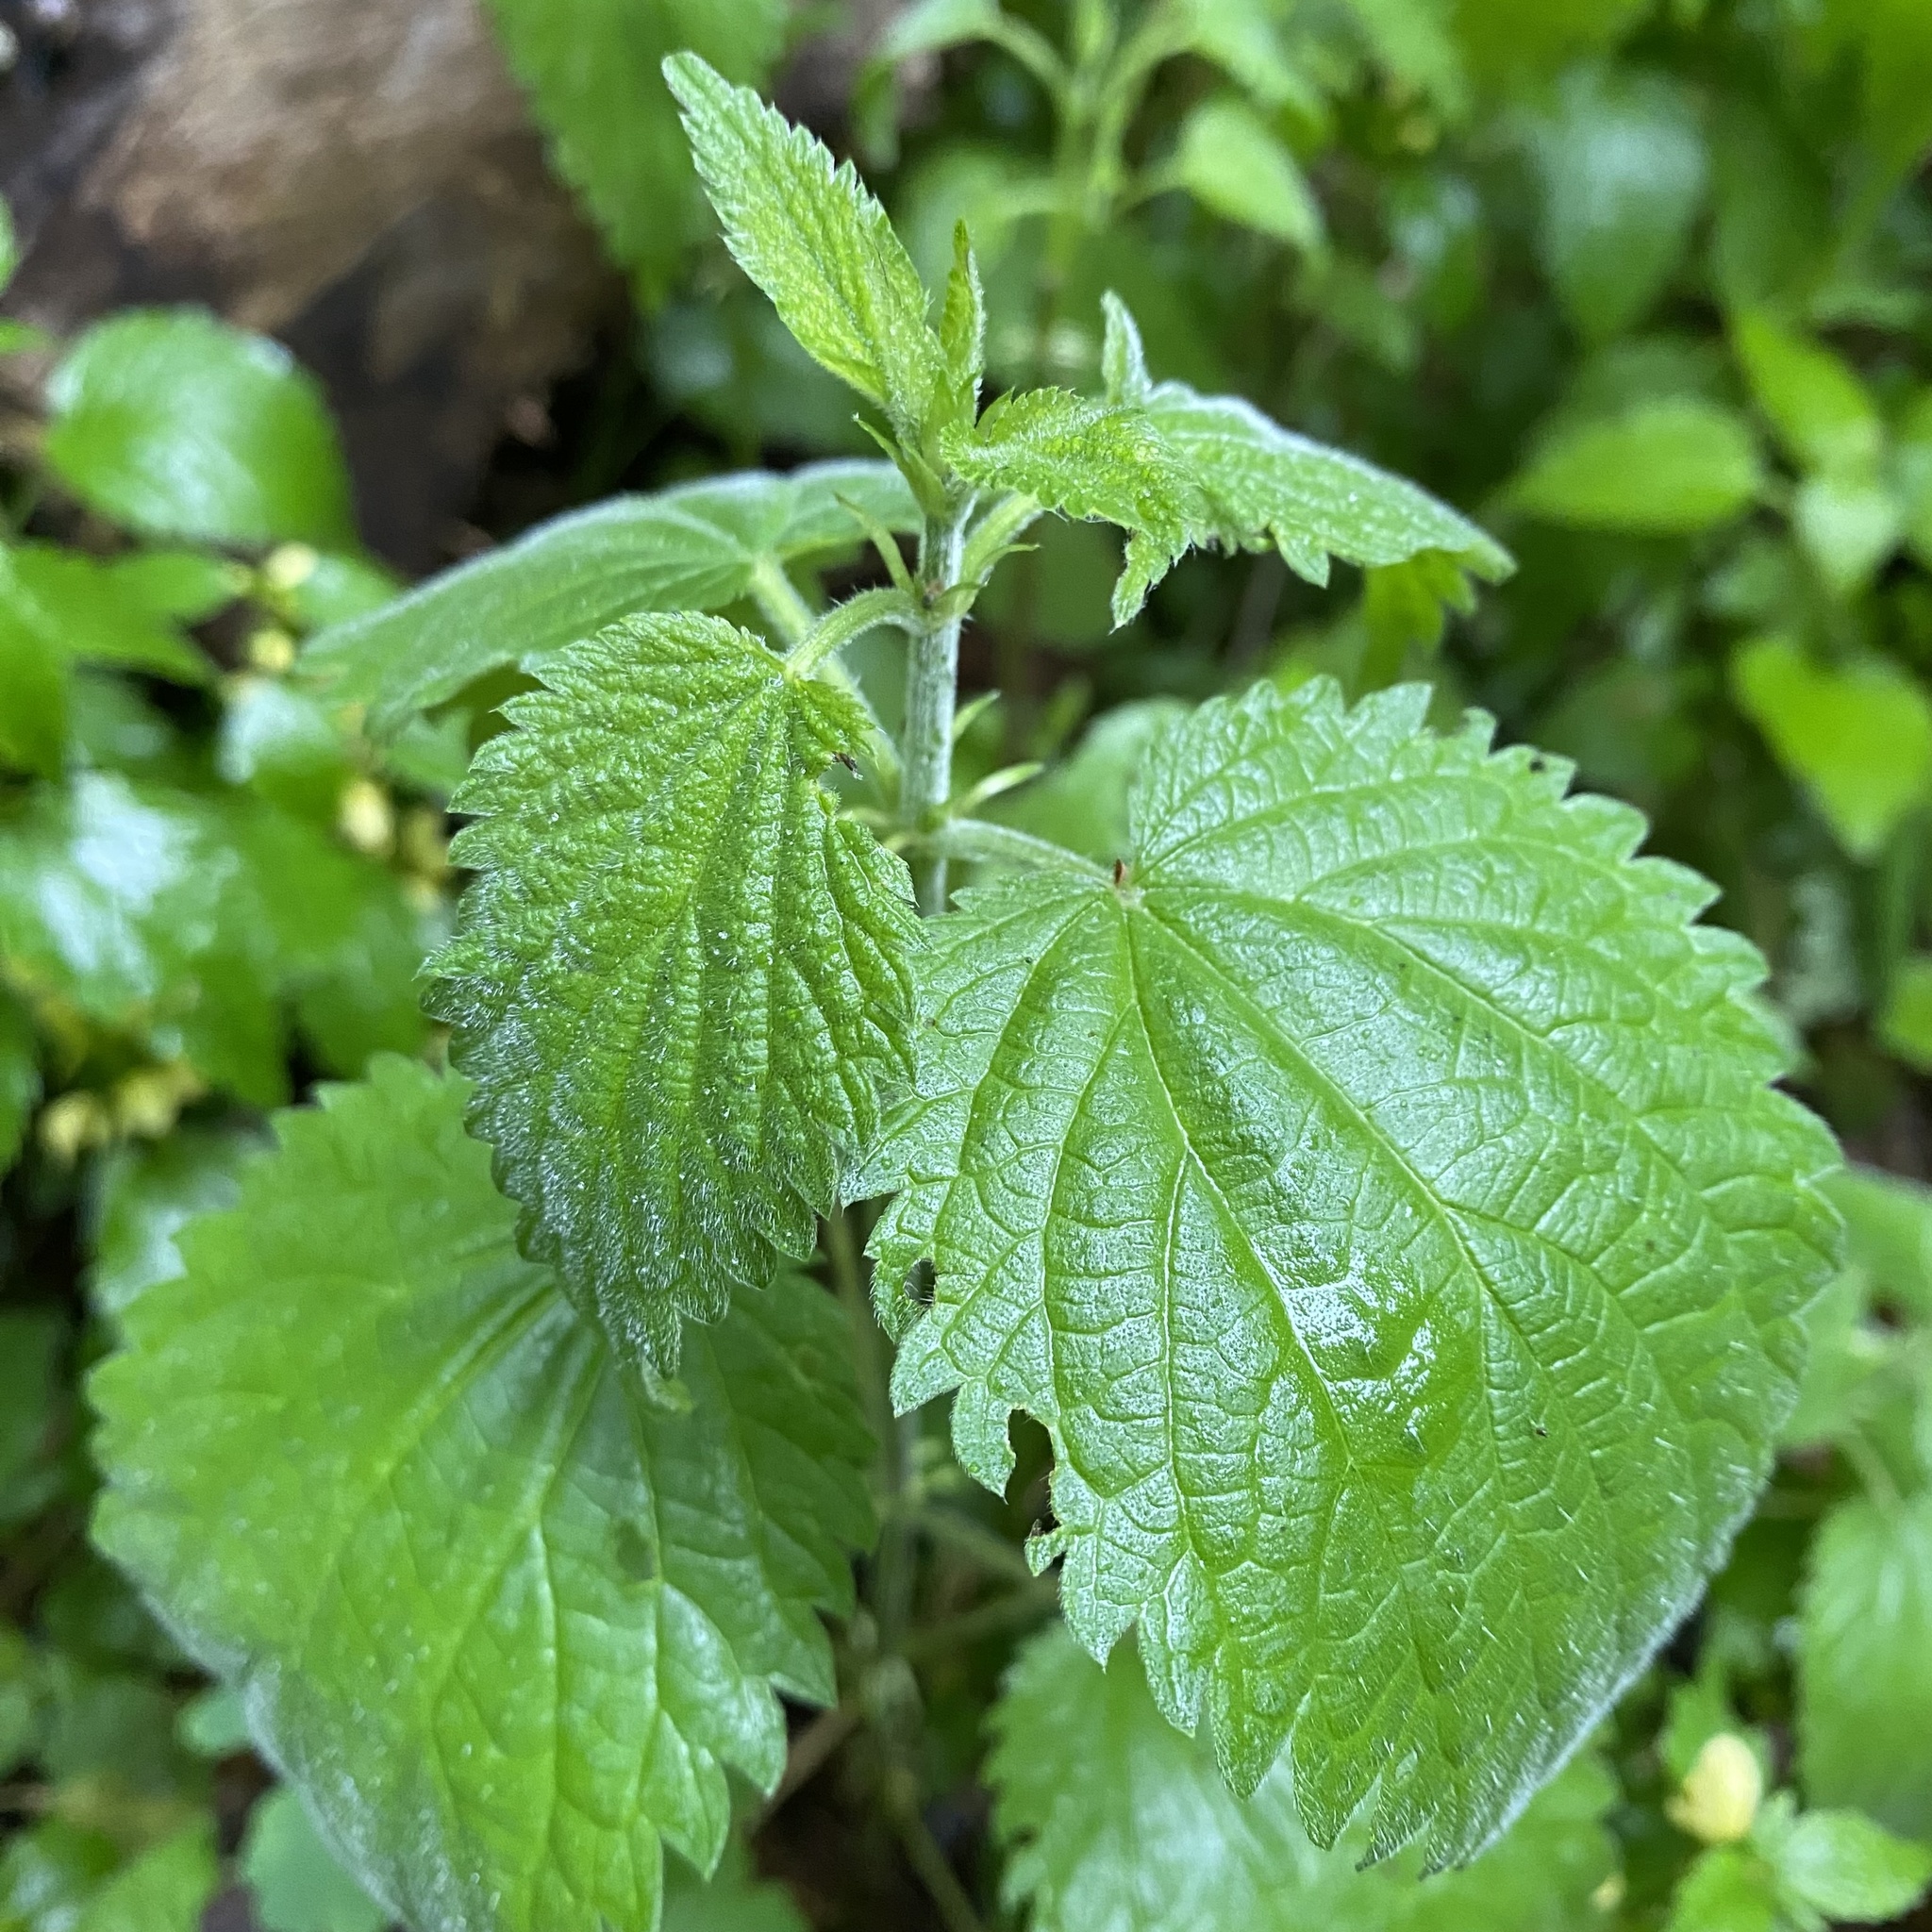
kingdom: Plantae
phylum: Tracheophyta
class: Magnoliopsida
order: Rosales
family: Urticaceae
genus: Urtica
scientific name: Urtica dioica
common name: Common nettle
